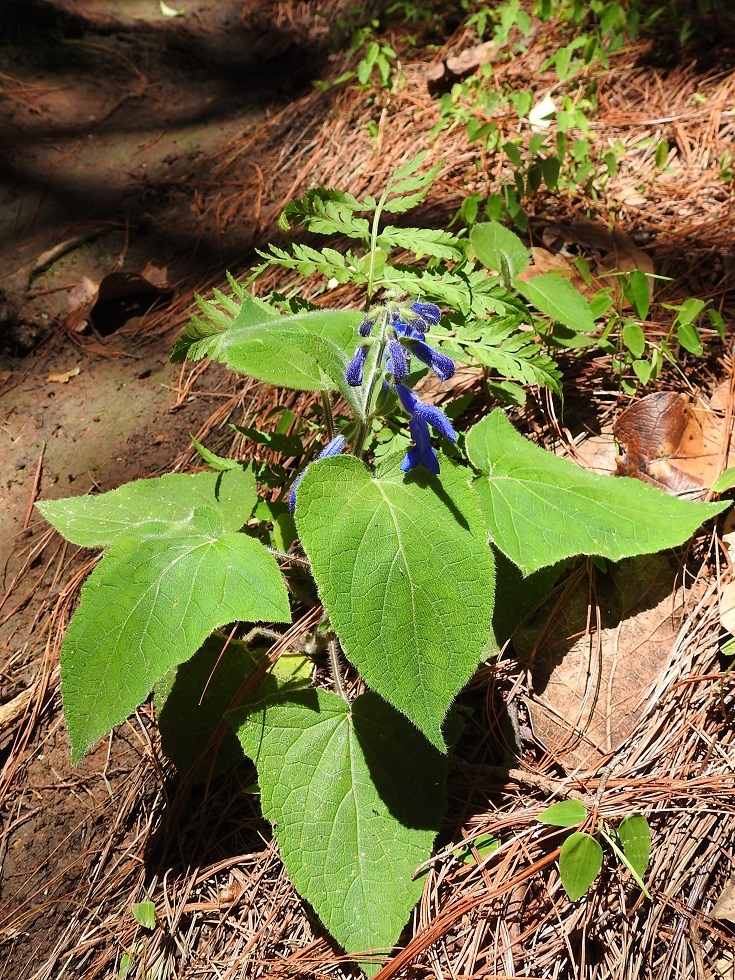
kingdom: Plantae
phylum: Tracheophyta
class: Magnoliopsida
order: Lamiales
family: Lamiaceae
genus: Salvia
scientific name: Salvia patens
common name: Blue sage
